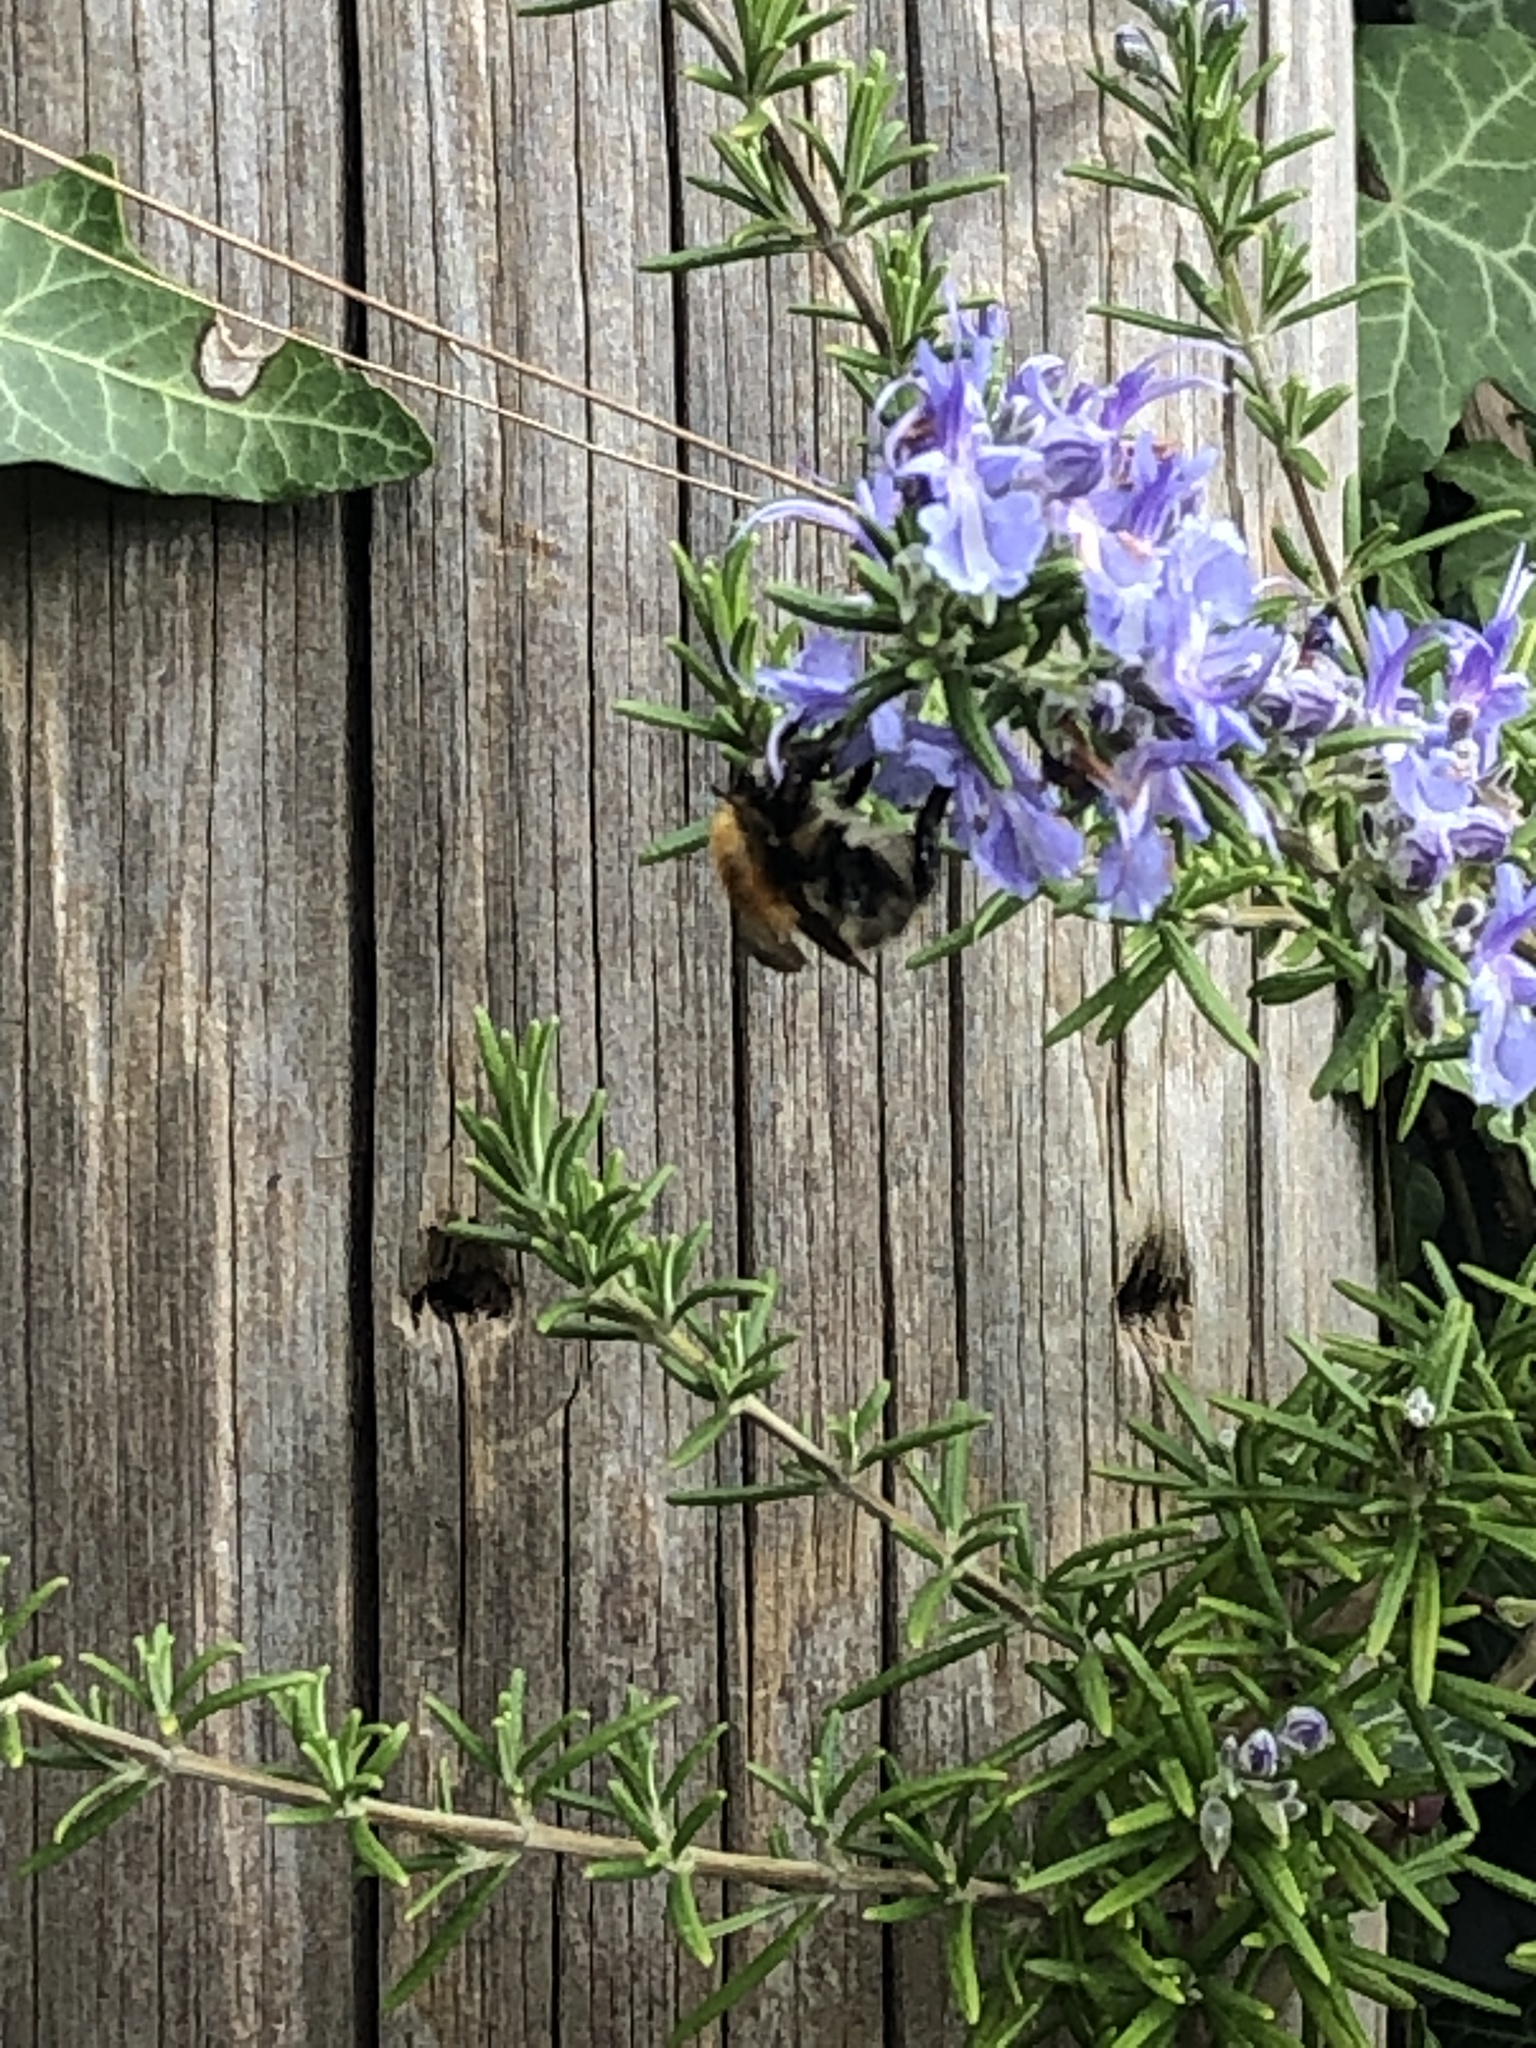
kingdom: Animalia
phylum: Arthropoda
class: Insecta
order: Hymenoptera
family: Apidae
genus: Bombus
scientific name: Bombus pascuorum
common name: Common carder bee
